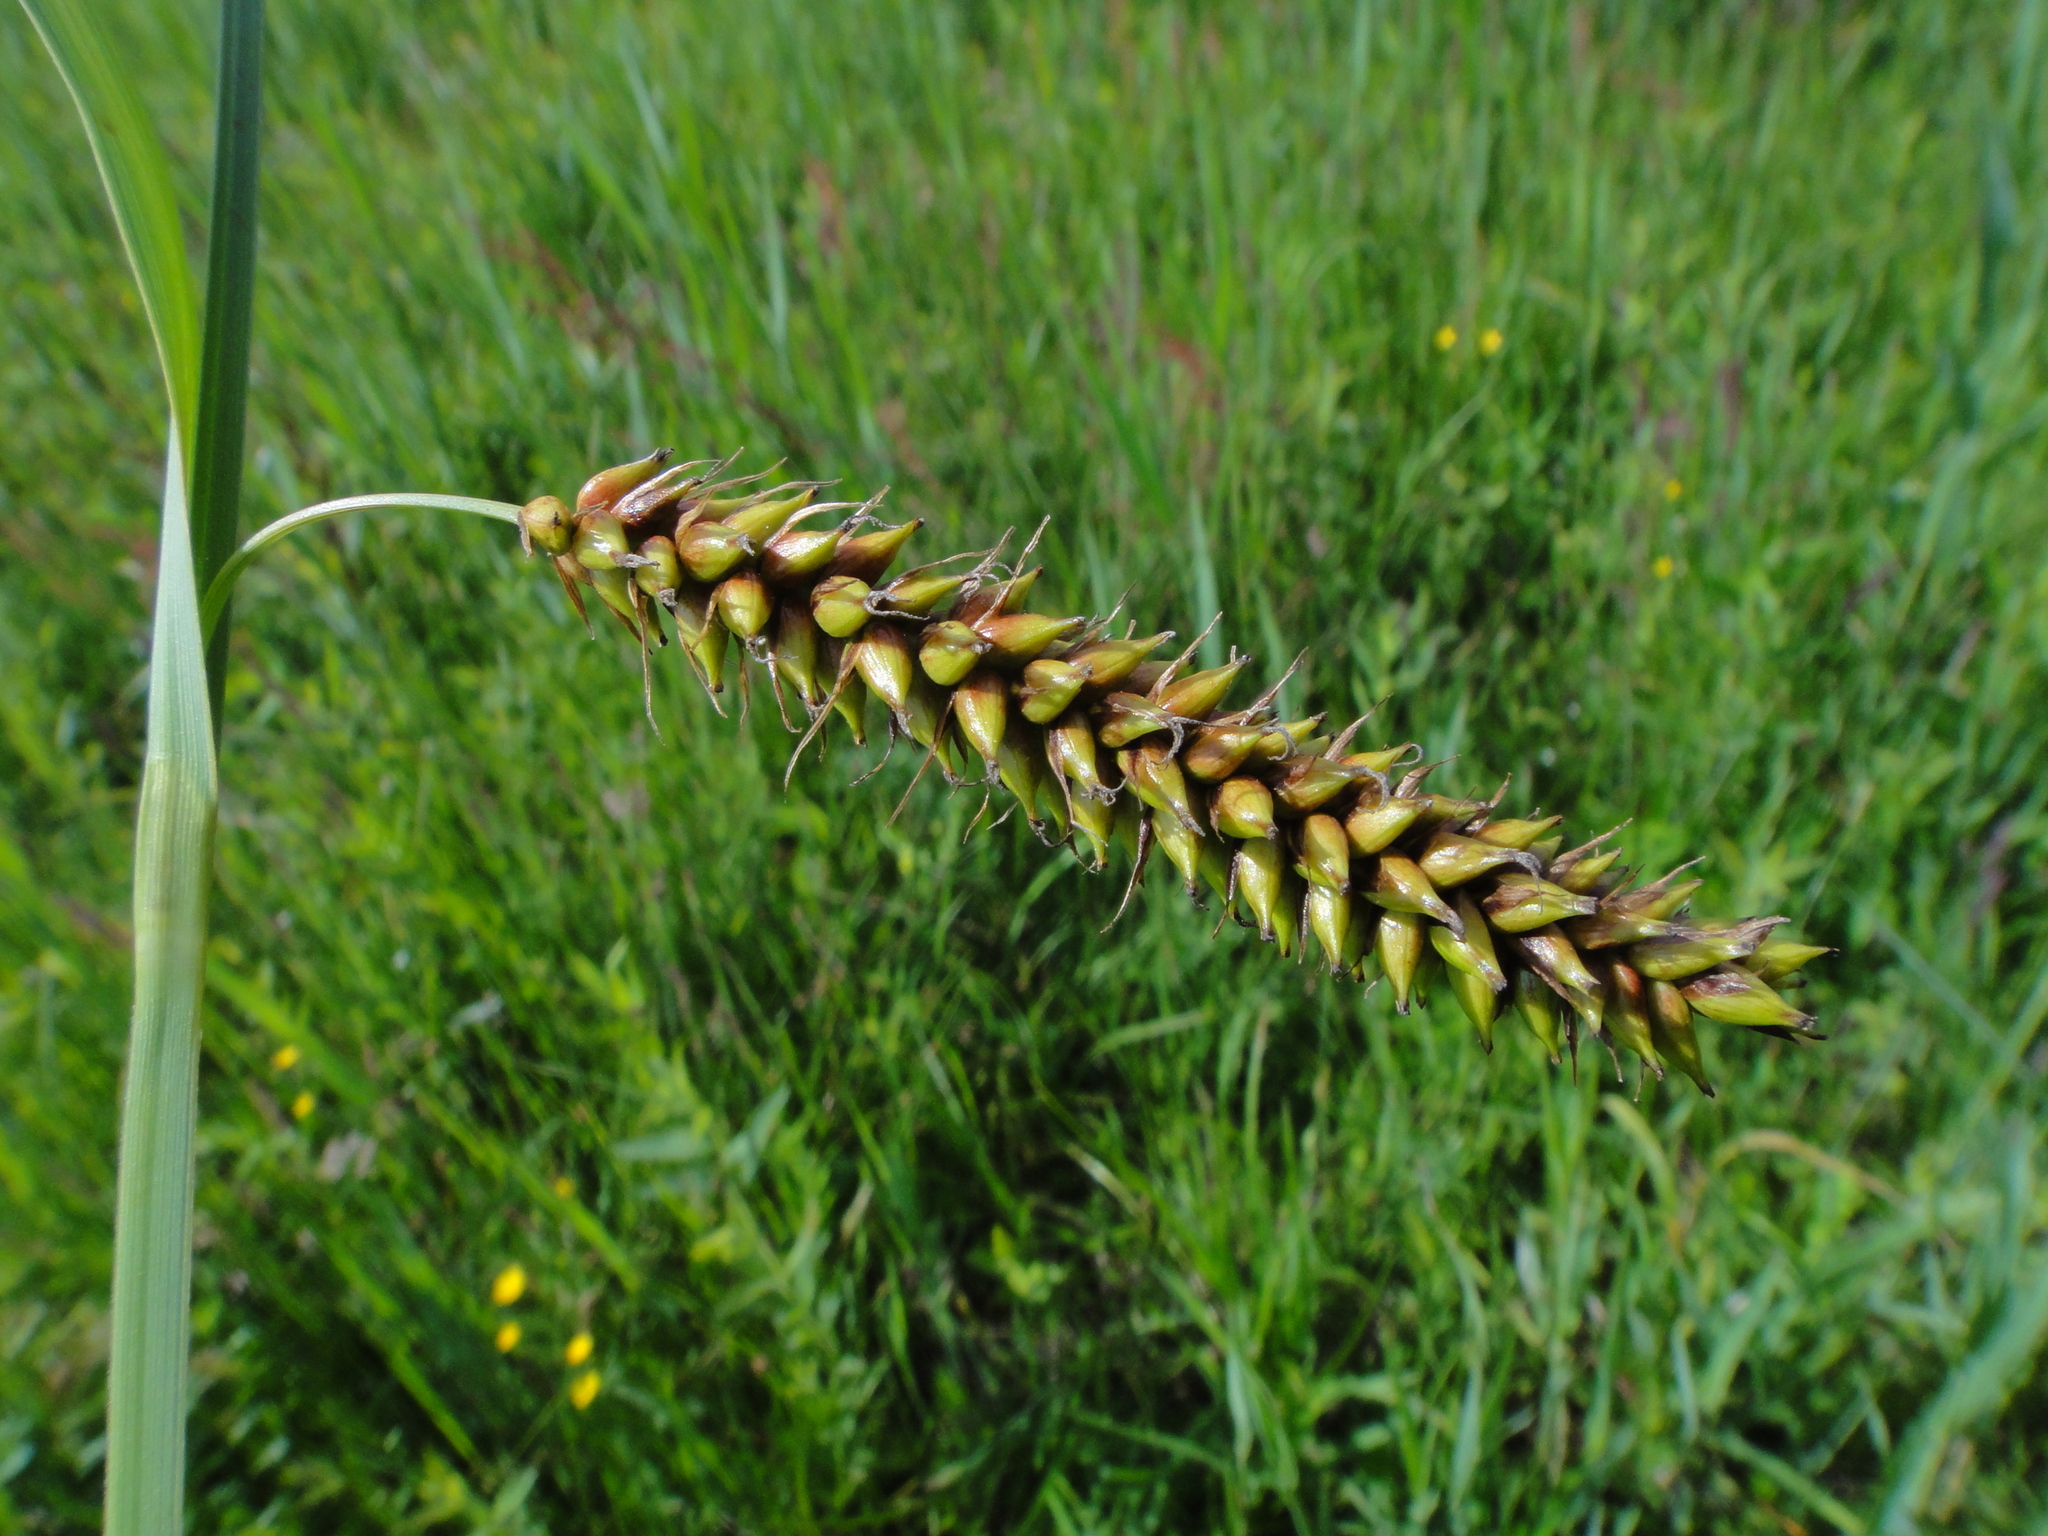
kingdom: Plantae
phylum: Tracheophyta
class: Liliopsida
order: Poales
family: Cyperaceae
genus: Carex
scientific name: Carex acutiformis
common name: Lesser pond-sedge
